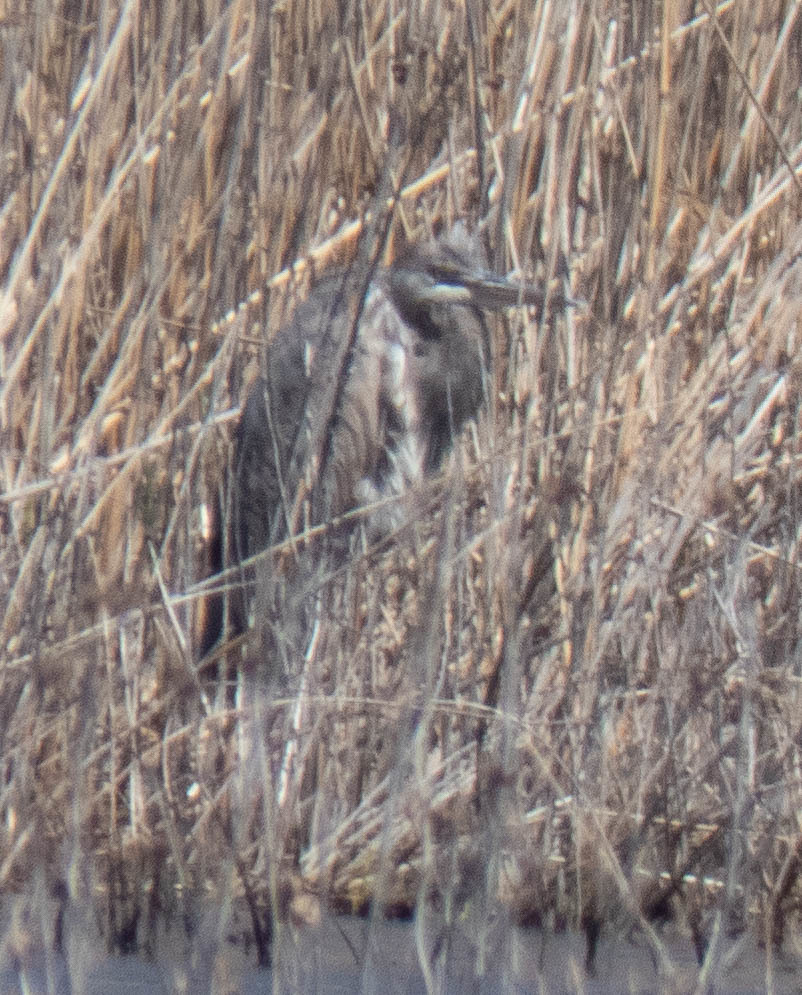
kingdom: Animalia
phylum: Chordata
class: Aves
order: Pelecaniformes
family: Ardeidae
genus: Ardea
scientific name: Ardea herodias
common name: Great blue heron
